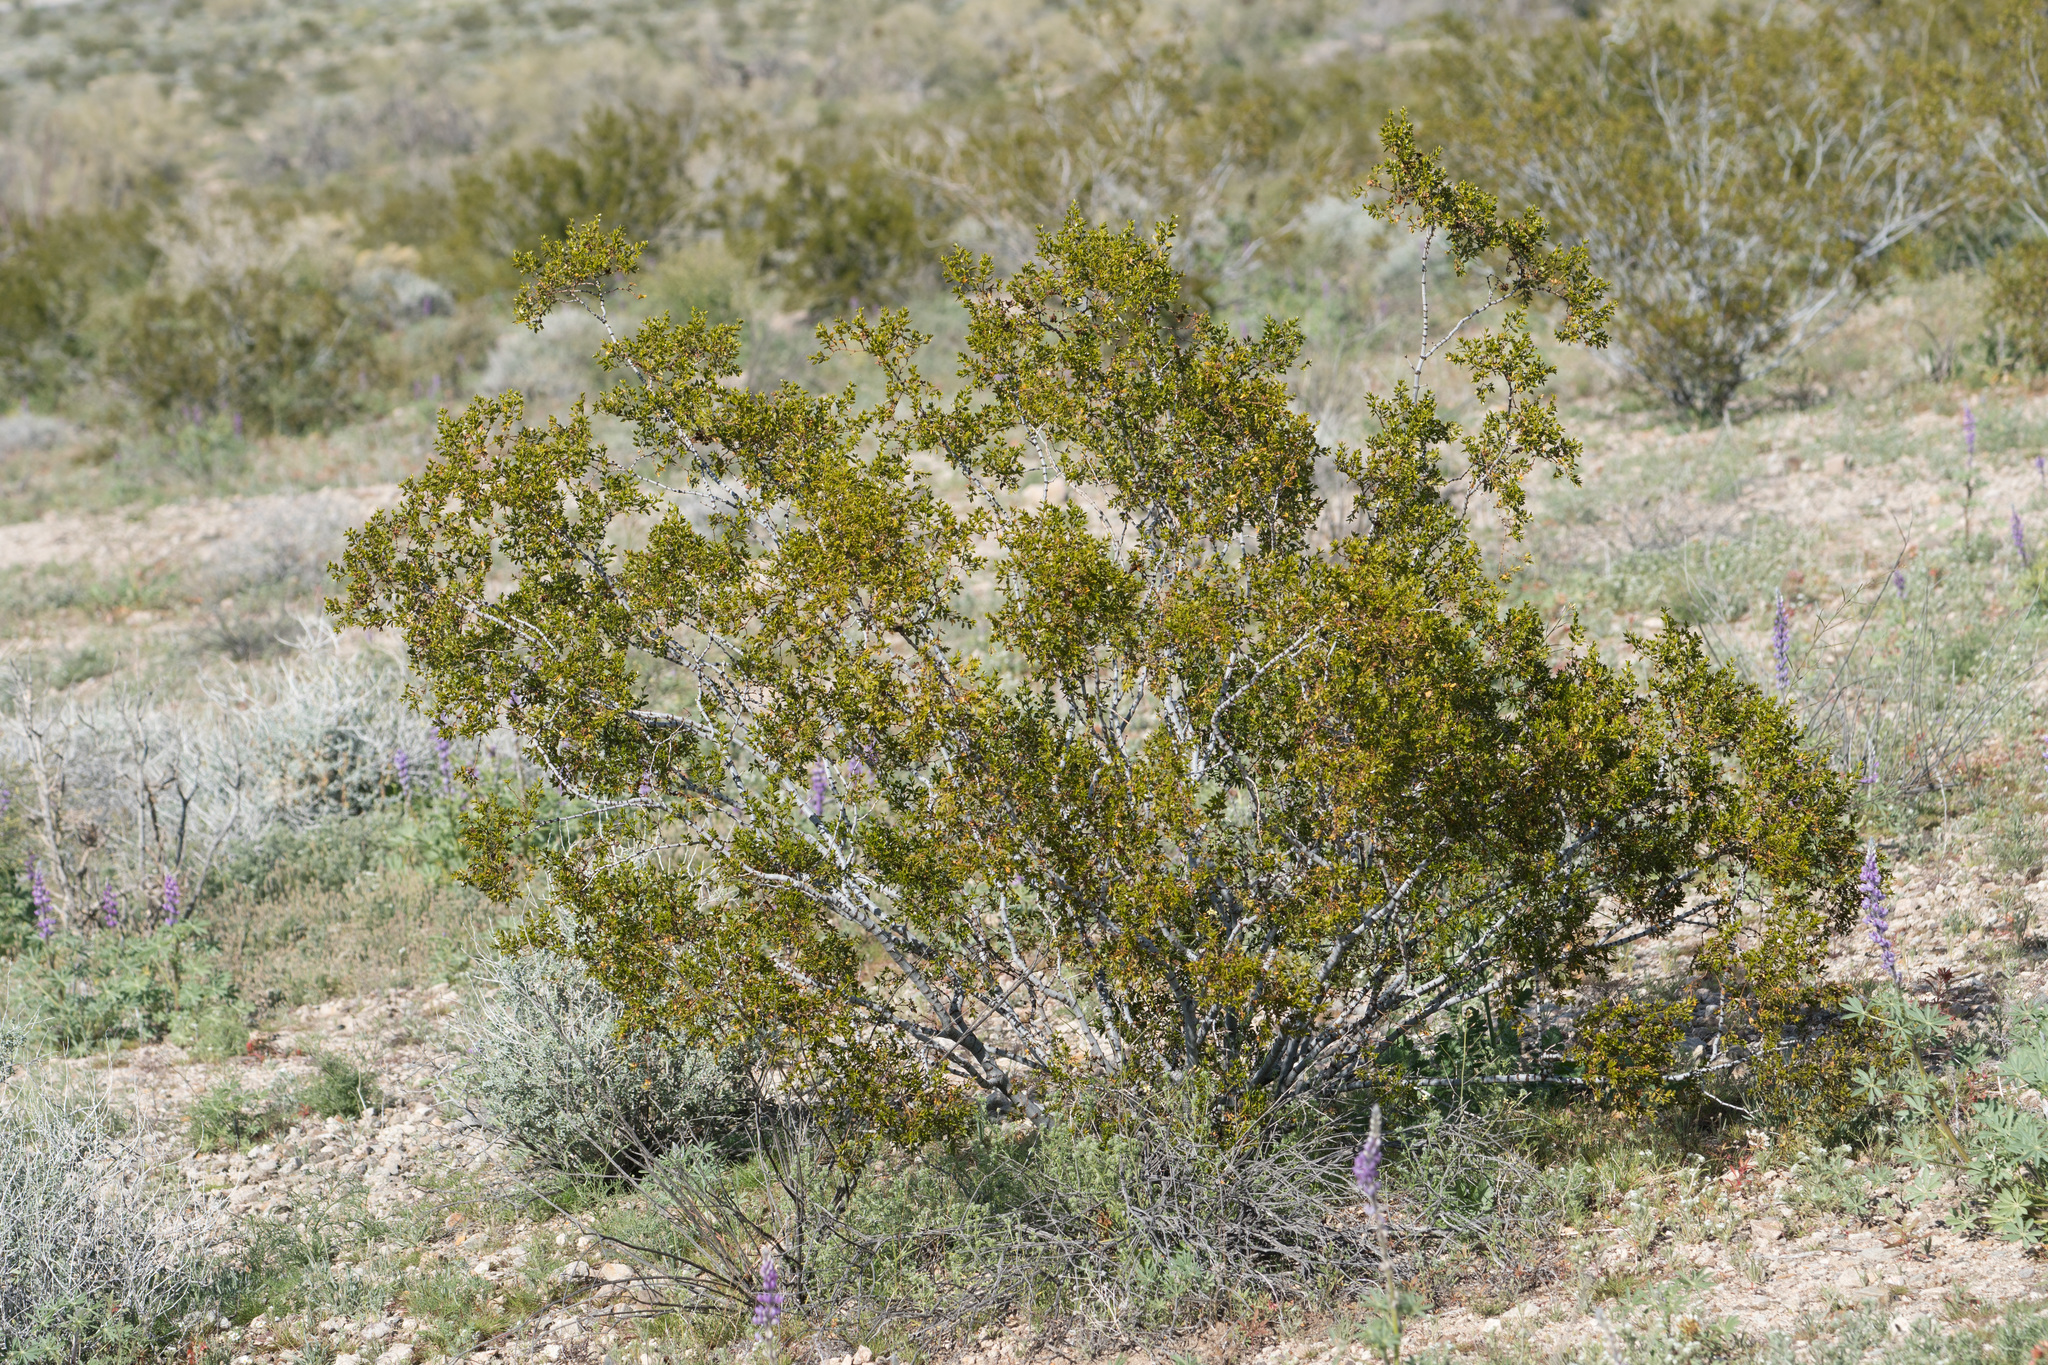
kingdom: Plantae
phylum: Tracheophyta
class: Magnoliopsida
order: Zygophyllales
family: Zygophyllaceae
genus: Larrea
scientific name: Larrea tridentata
